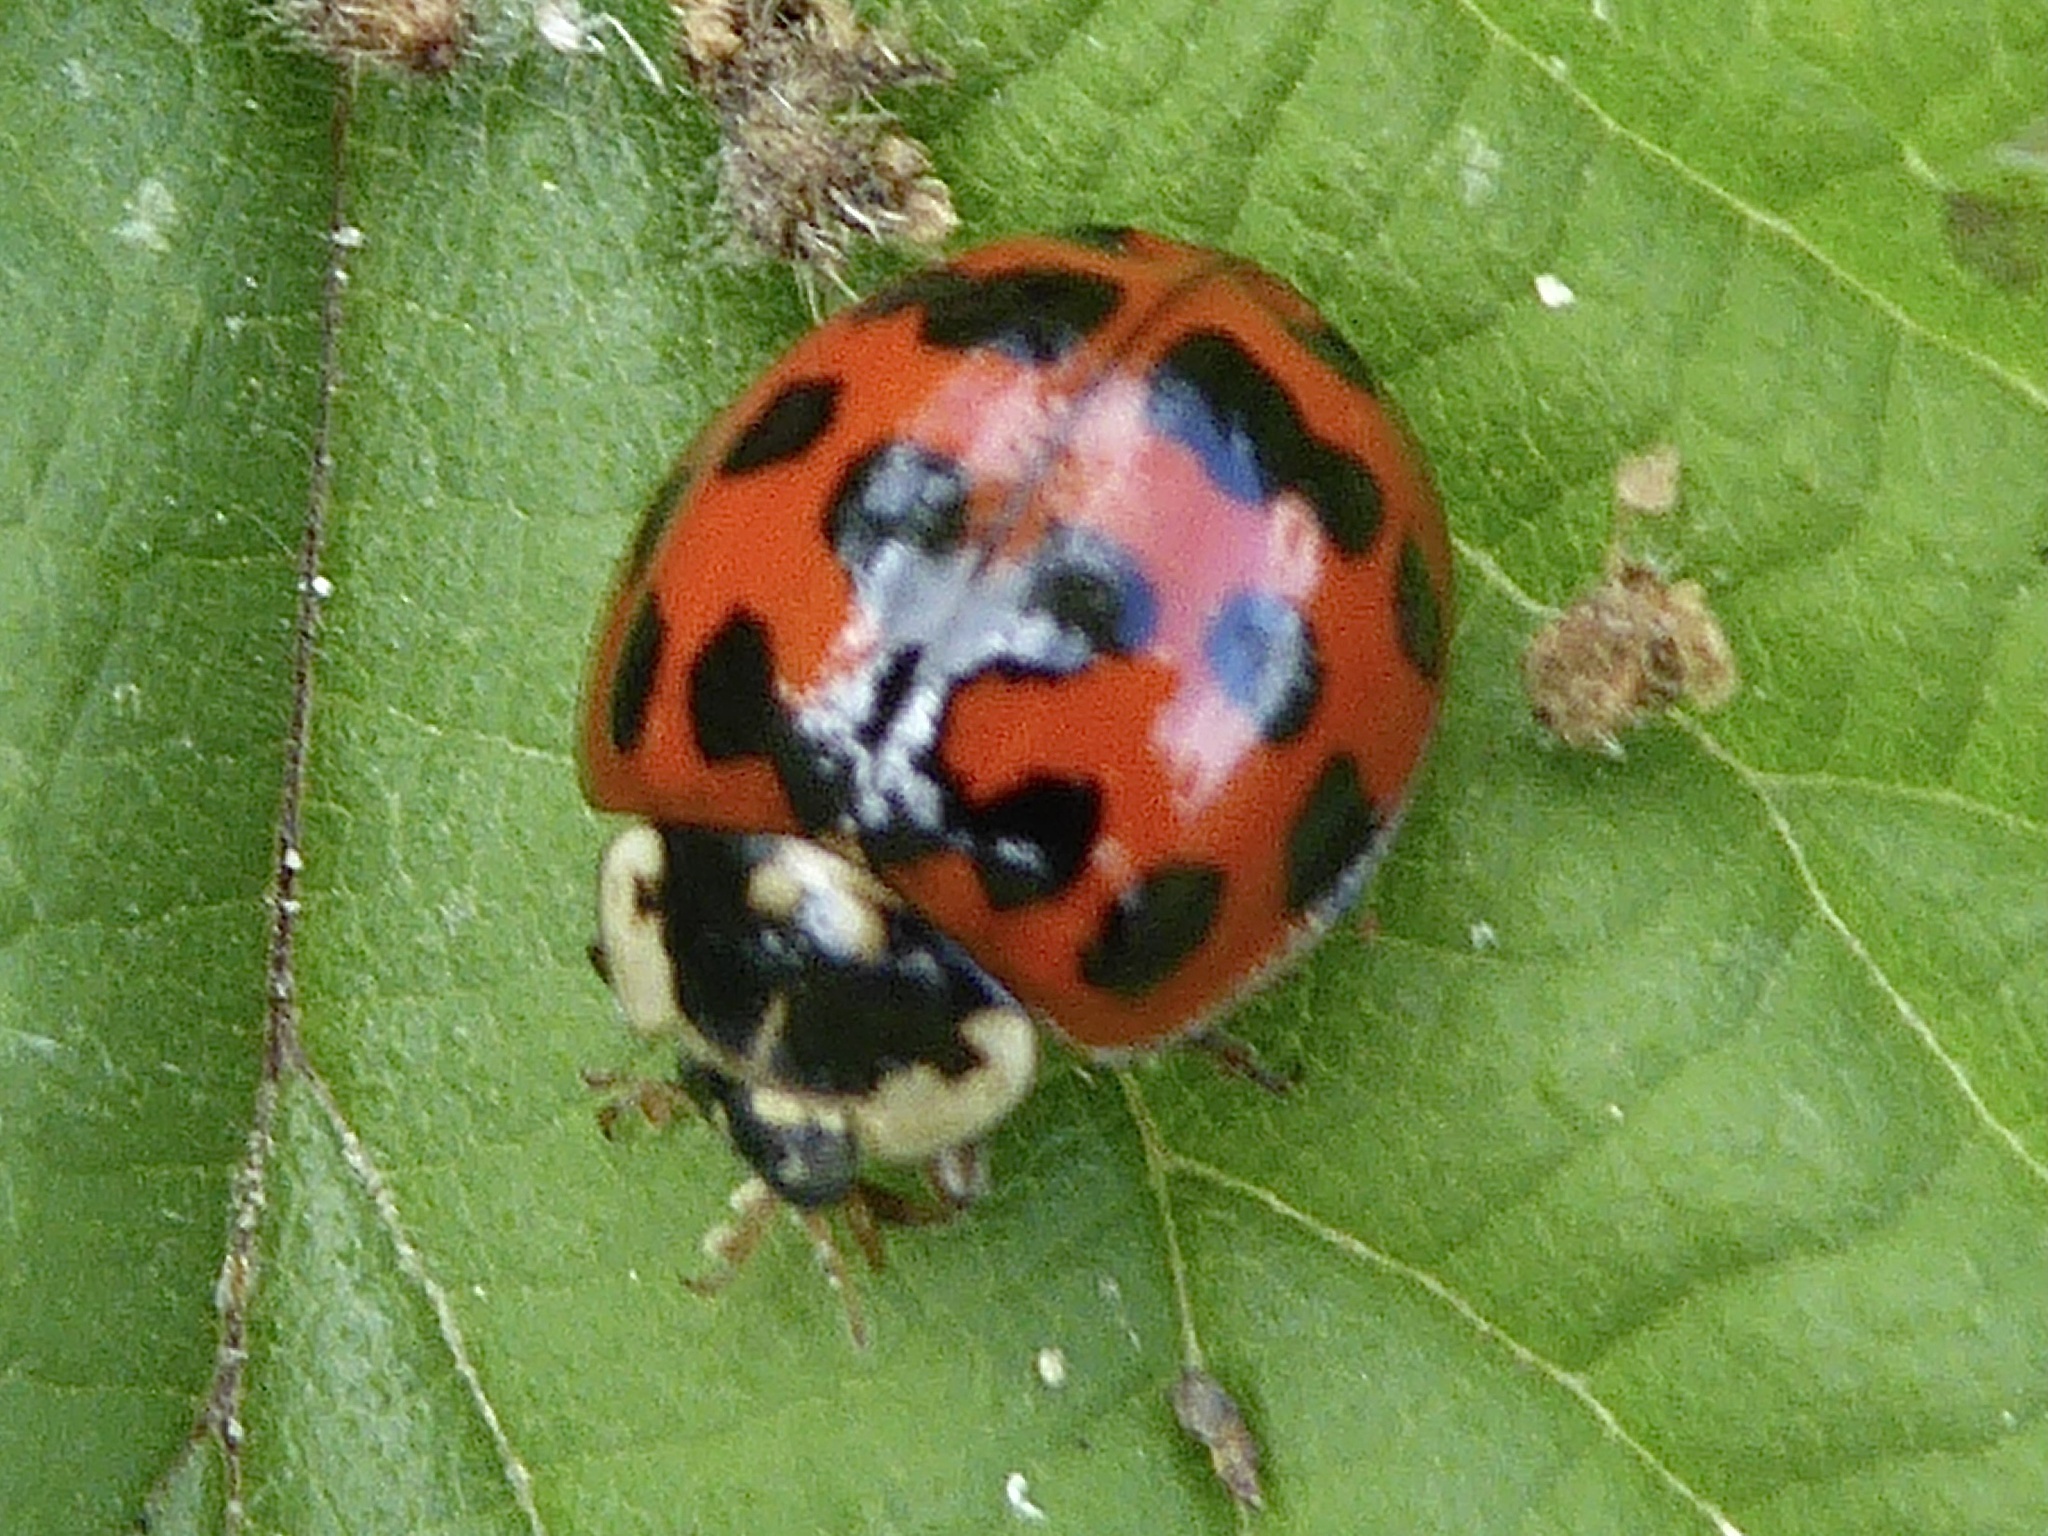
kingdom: Animalia
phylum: Arthropoda
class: Insecta
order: Coleoptera
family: Coccinellidae
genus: Harmonia
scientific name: Harmonia axyridis
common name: Harlequin ladybird
